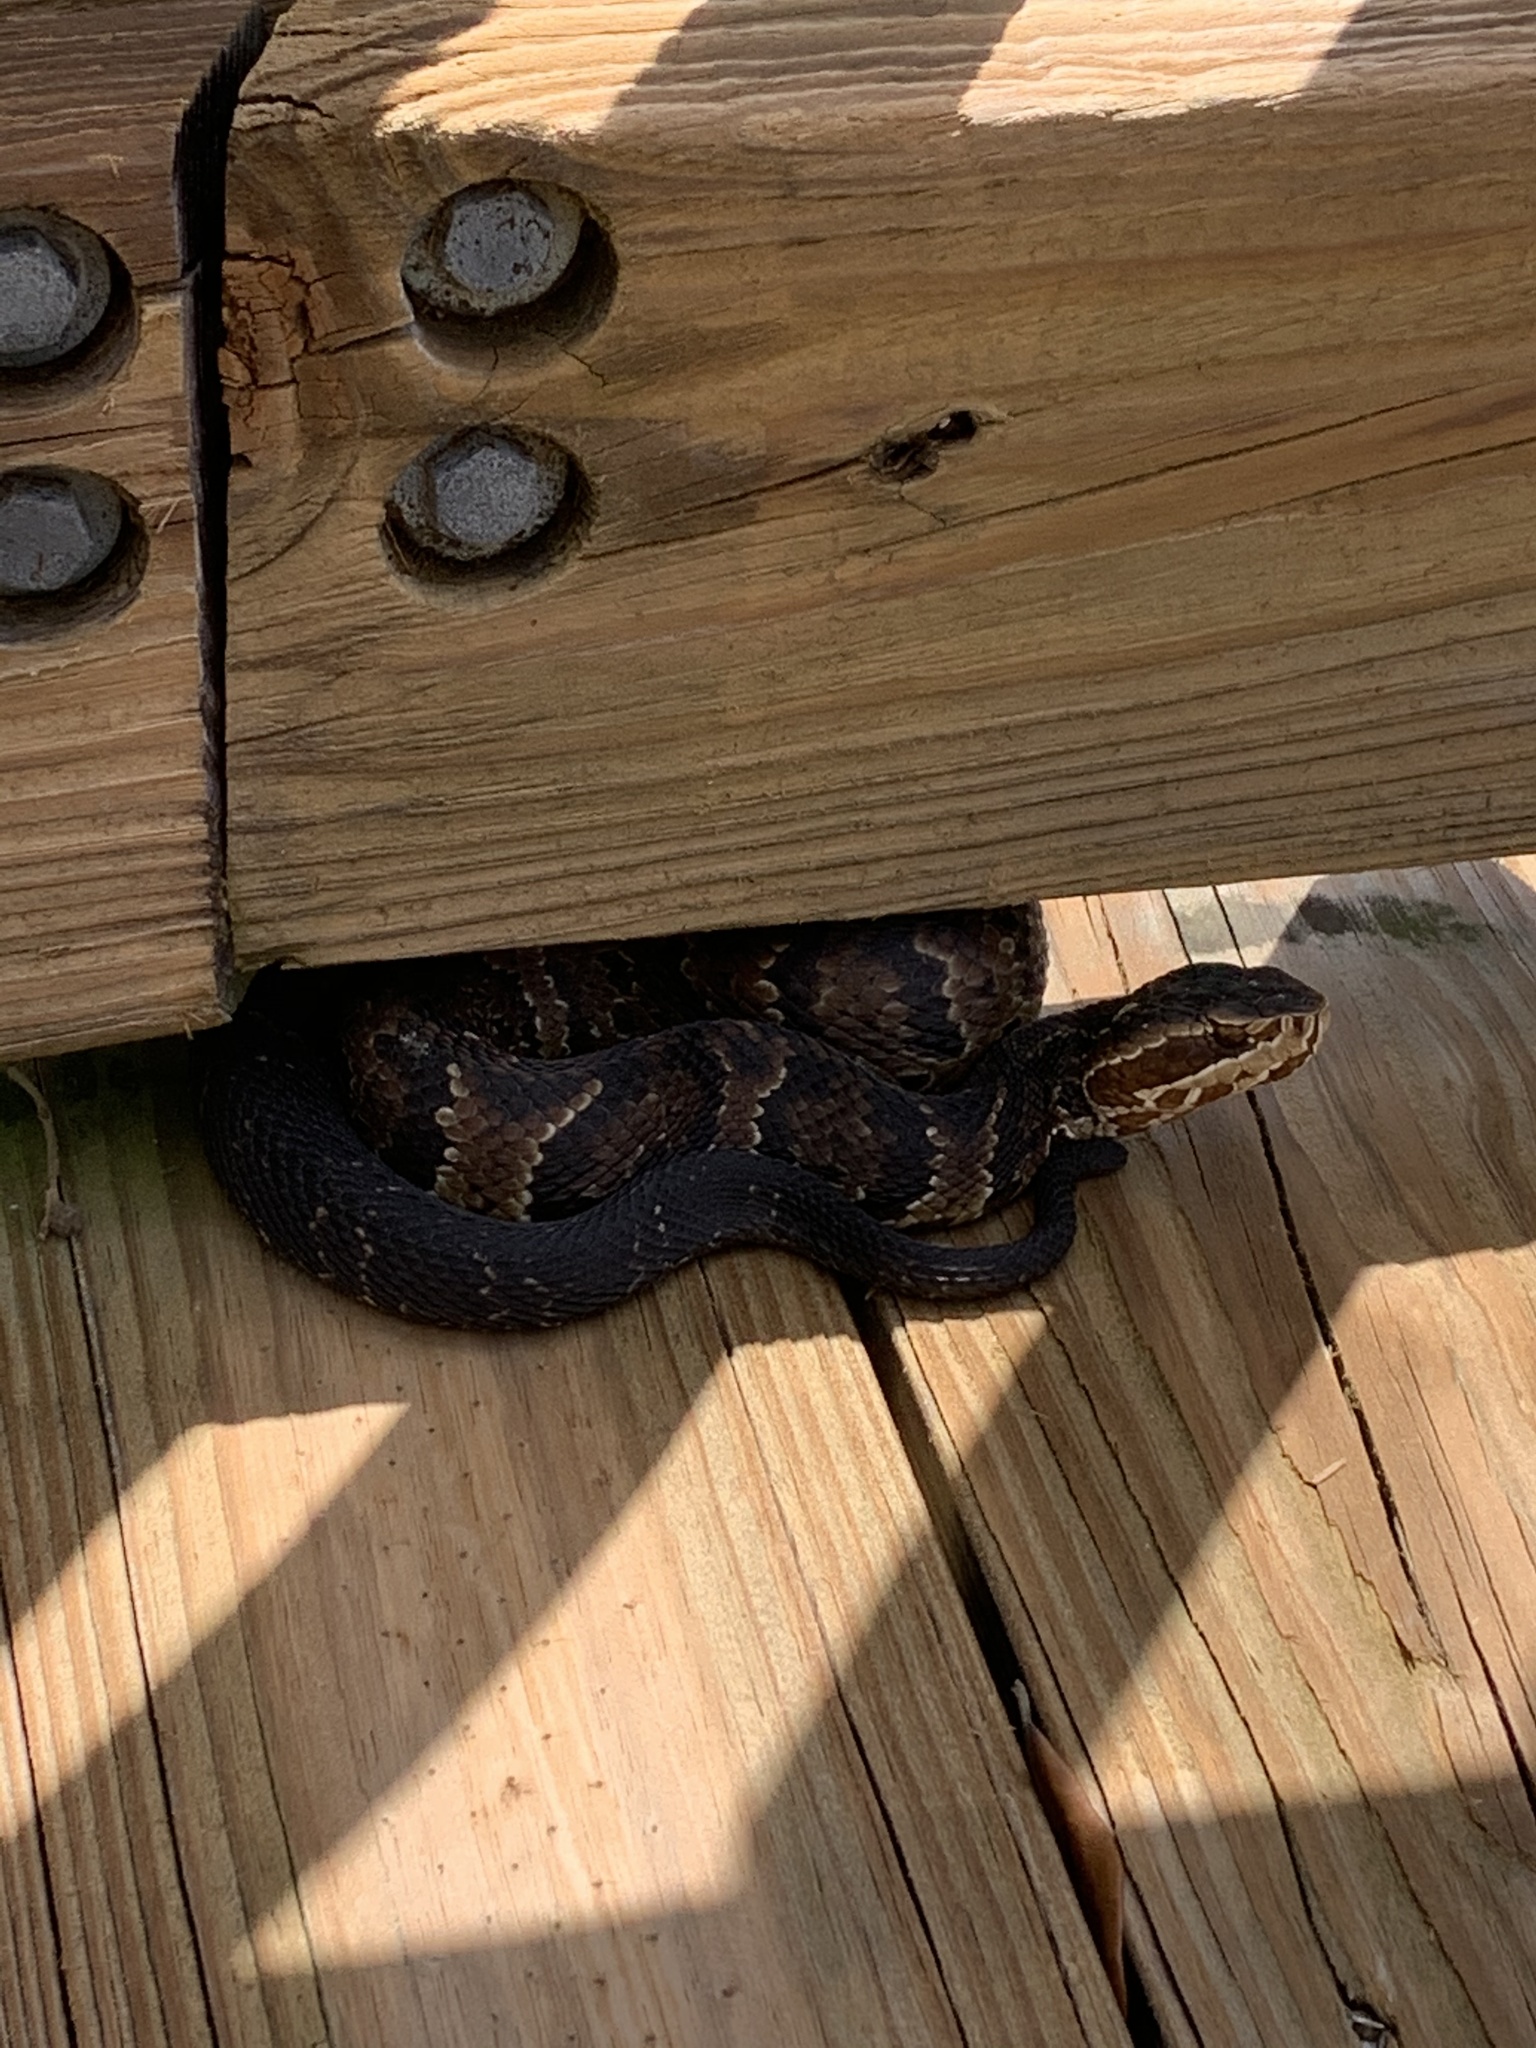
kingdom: Animalia
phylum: Chordata
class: Squamata
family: Viperidae
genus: Agkistrodon
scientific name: Agkistrodon conanti
